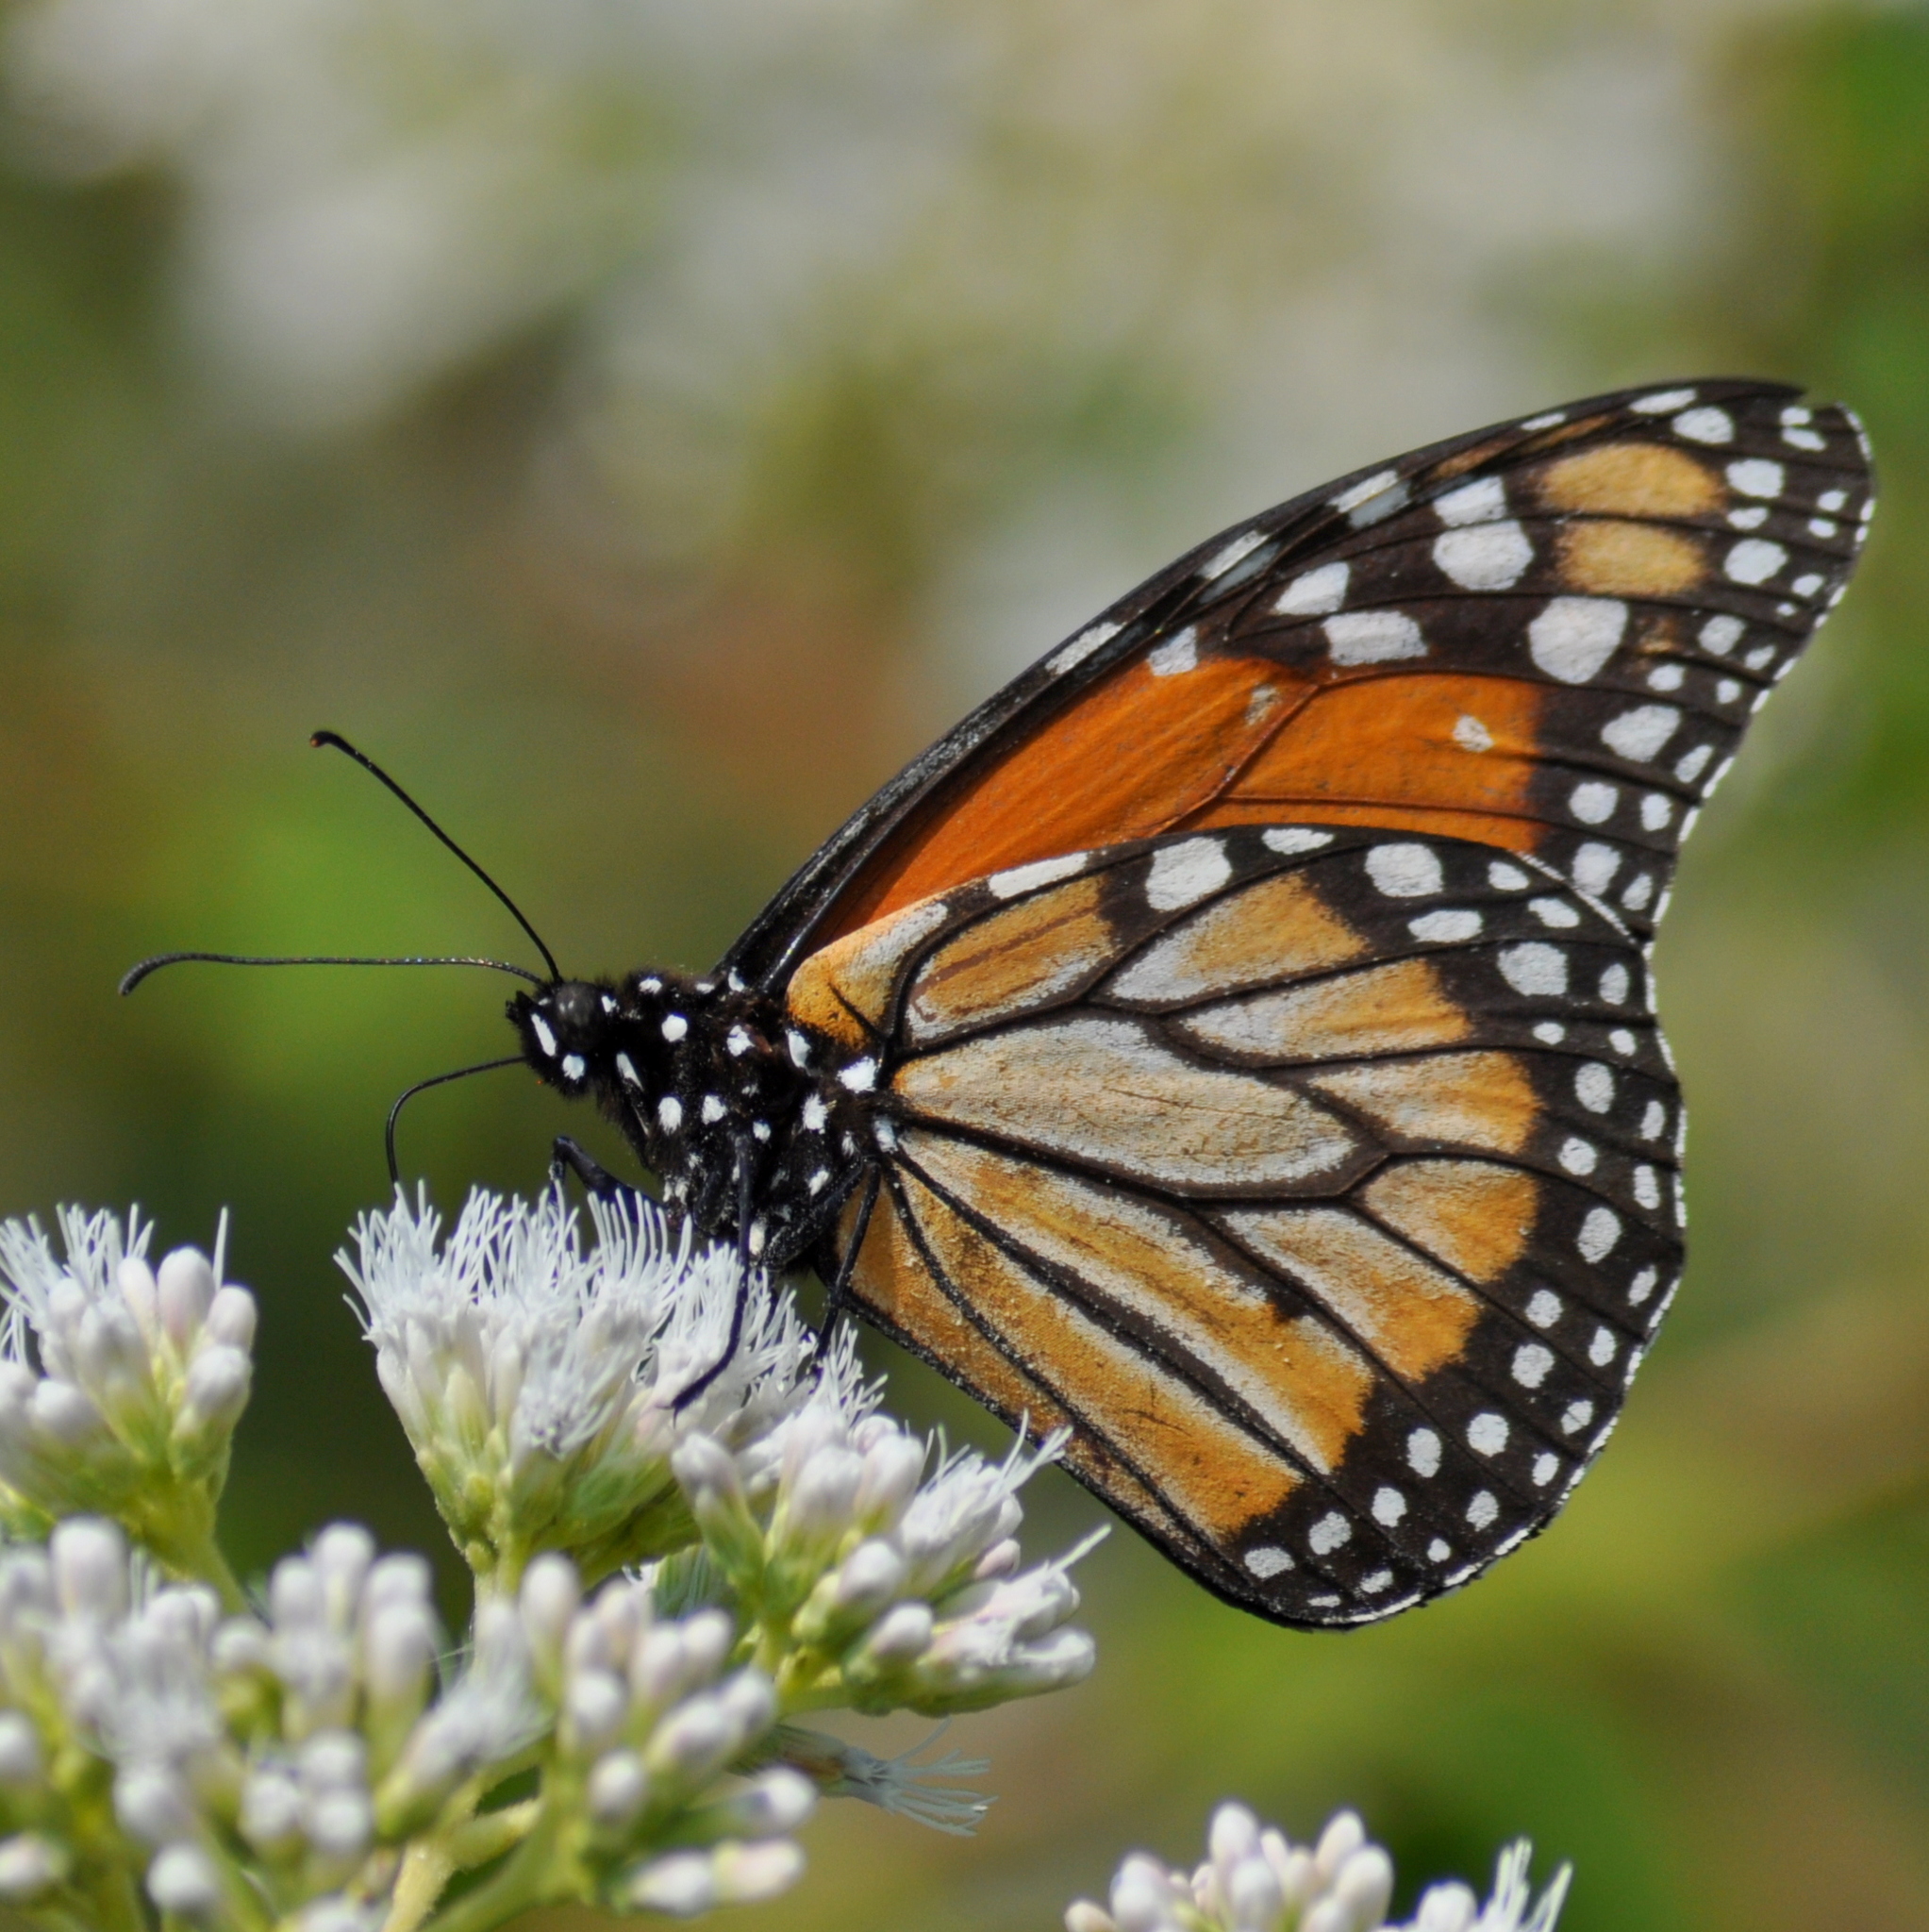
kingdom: Animalia
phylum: Arthropoda
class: Insecta
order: Lepidoptera
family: Nymphalidae
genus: Danaus
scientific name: Danaus erippus
